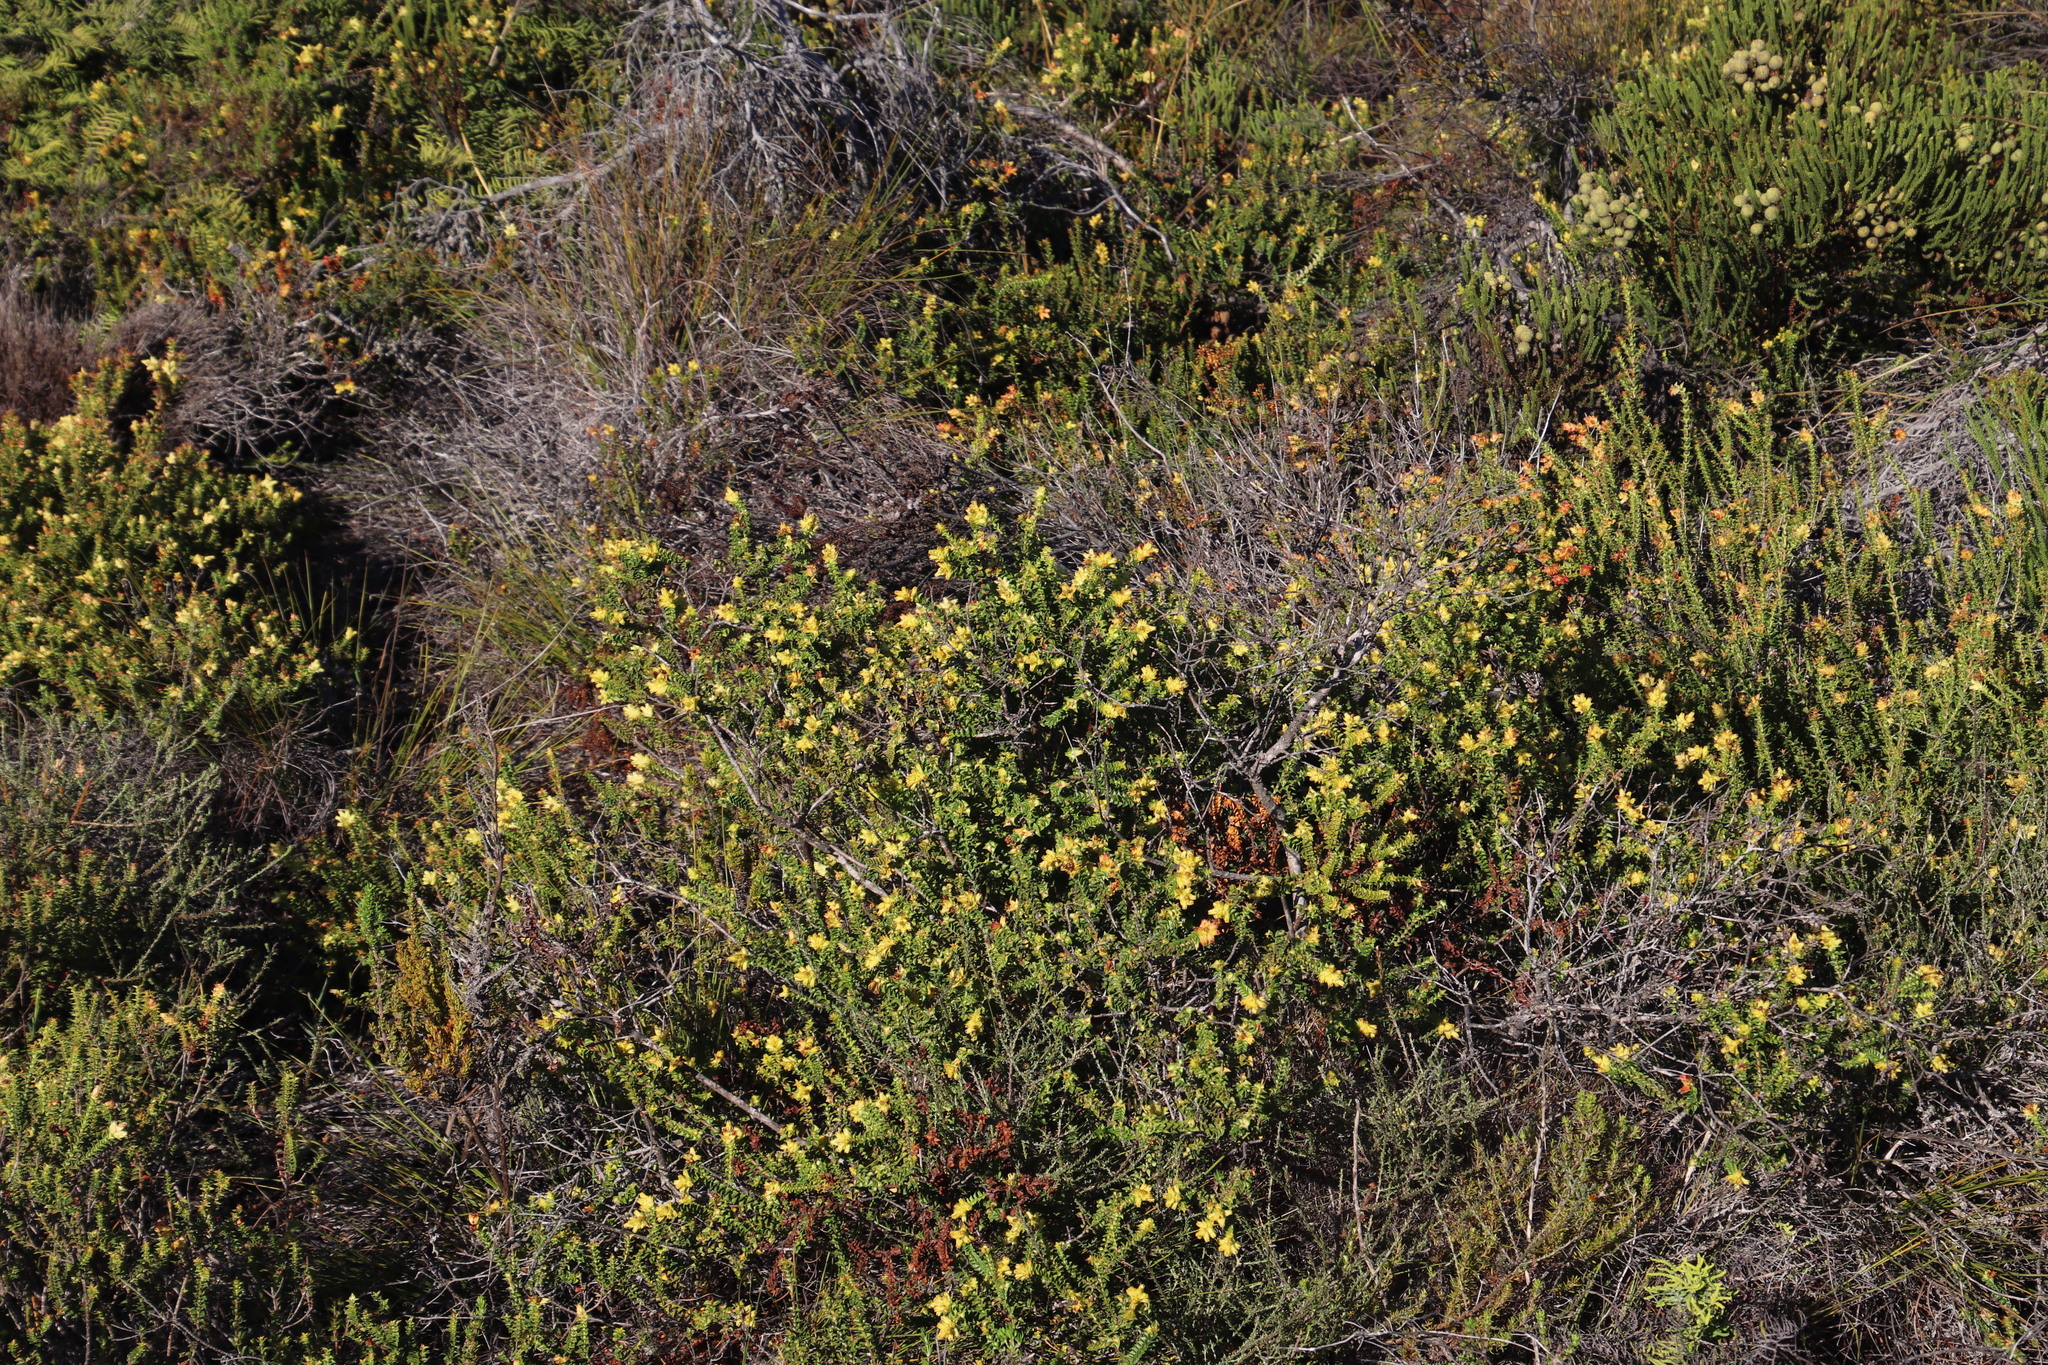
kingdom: Plantae
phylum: Tracheophyta
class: Magnoliopsida
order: Myrtales
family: Penaeaceae
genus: Penaea
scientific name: Penaea mucronata
